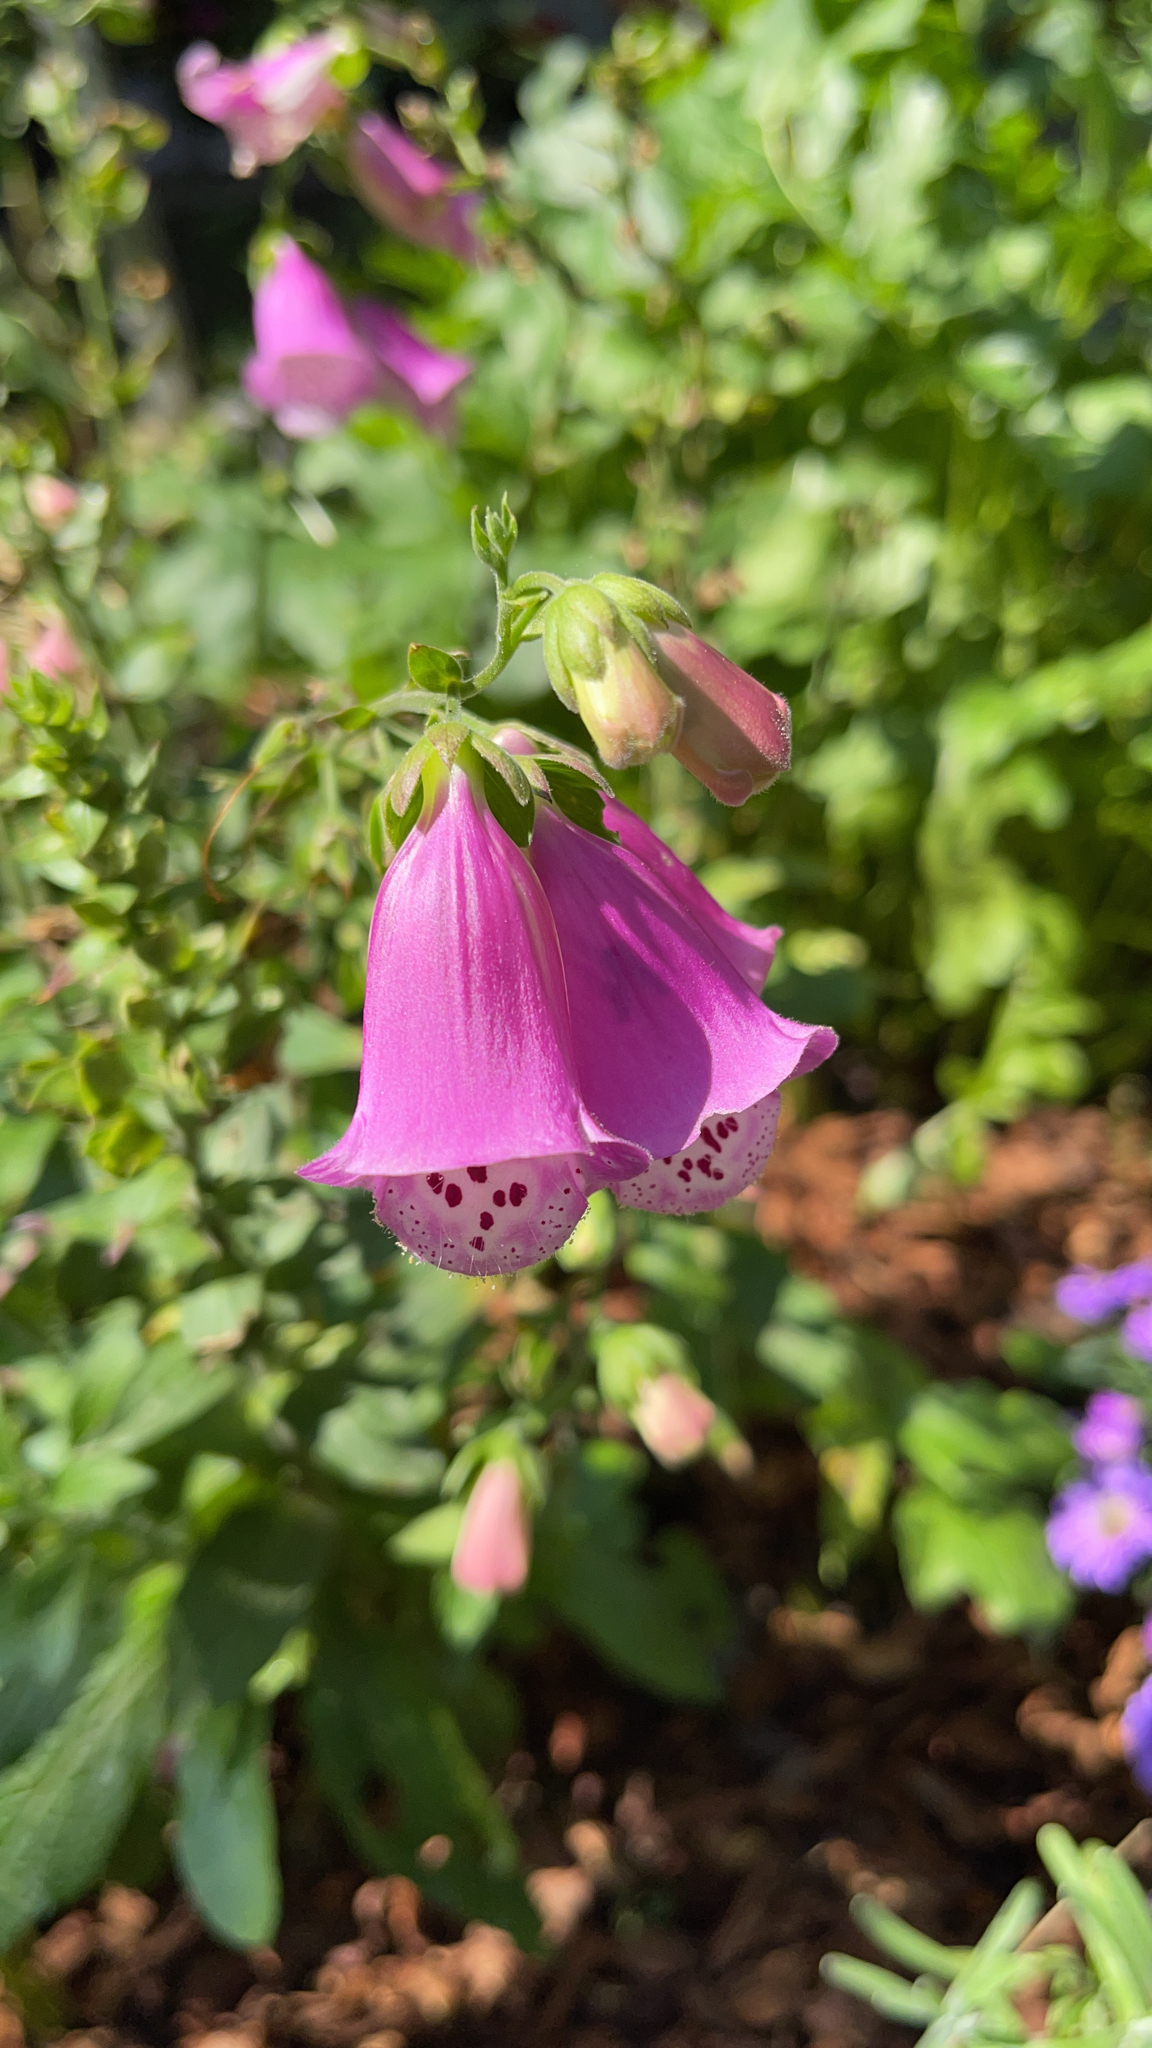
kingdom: Plantae
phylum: Tracheophyta
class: Magnoliopsida
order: Lamiales
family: Plantaginaceae
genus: Digitalis
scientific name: Digitalis purpurea
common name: Foxglove
